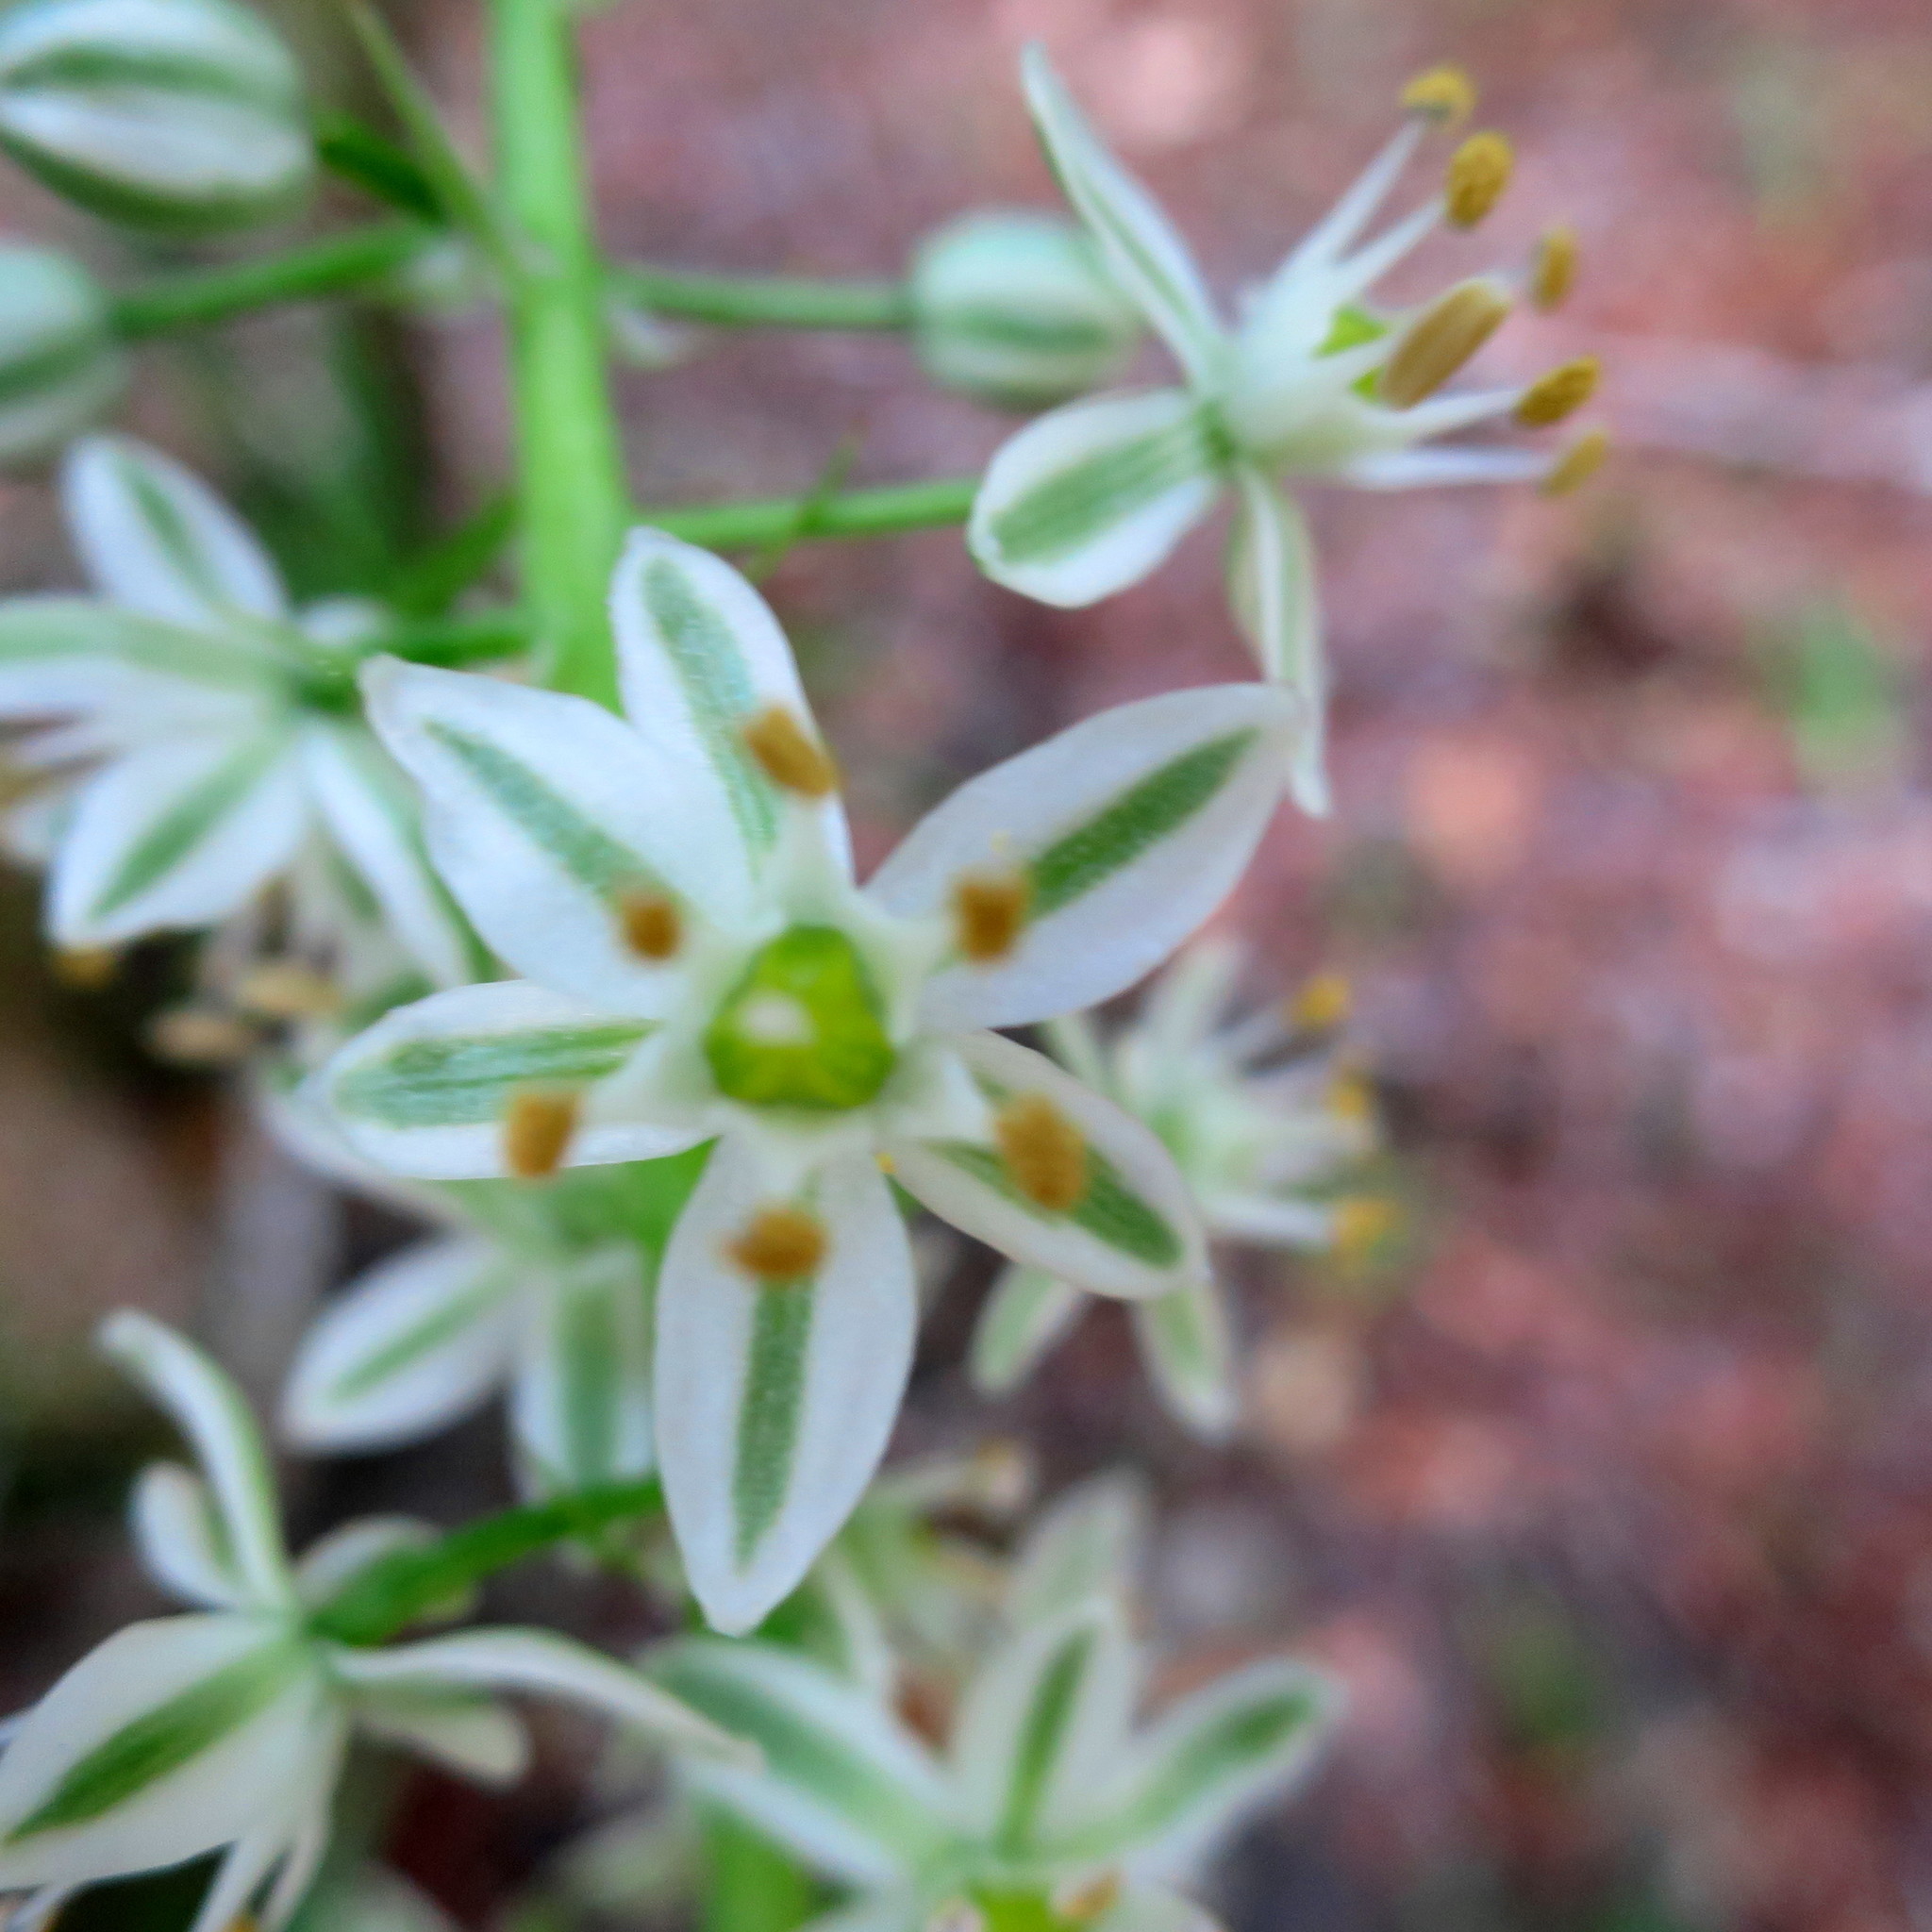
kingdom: Plantae
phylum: Tracheophyta
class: Liliopsida
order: Asparagales
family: Asparagaceae
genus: Albuca
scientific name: Albuca bracteata
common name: Sea-onion
